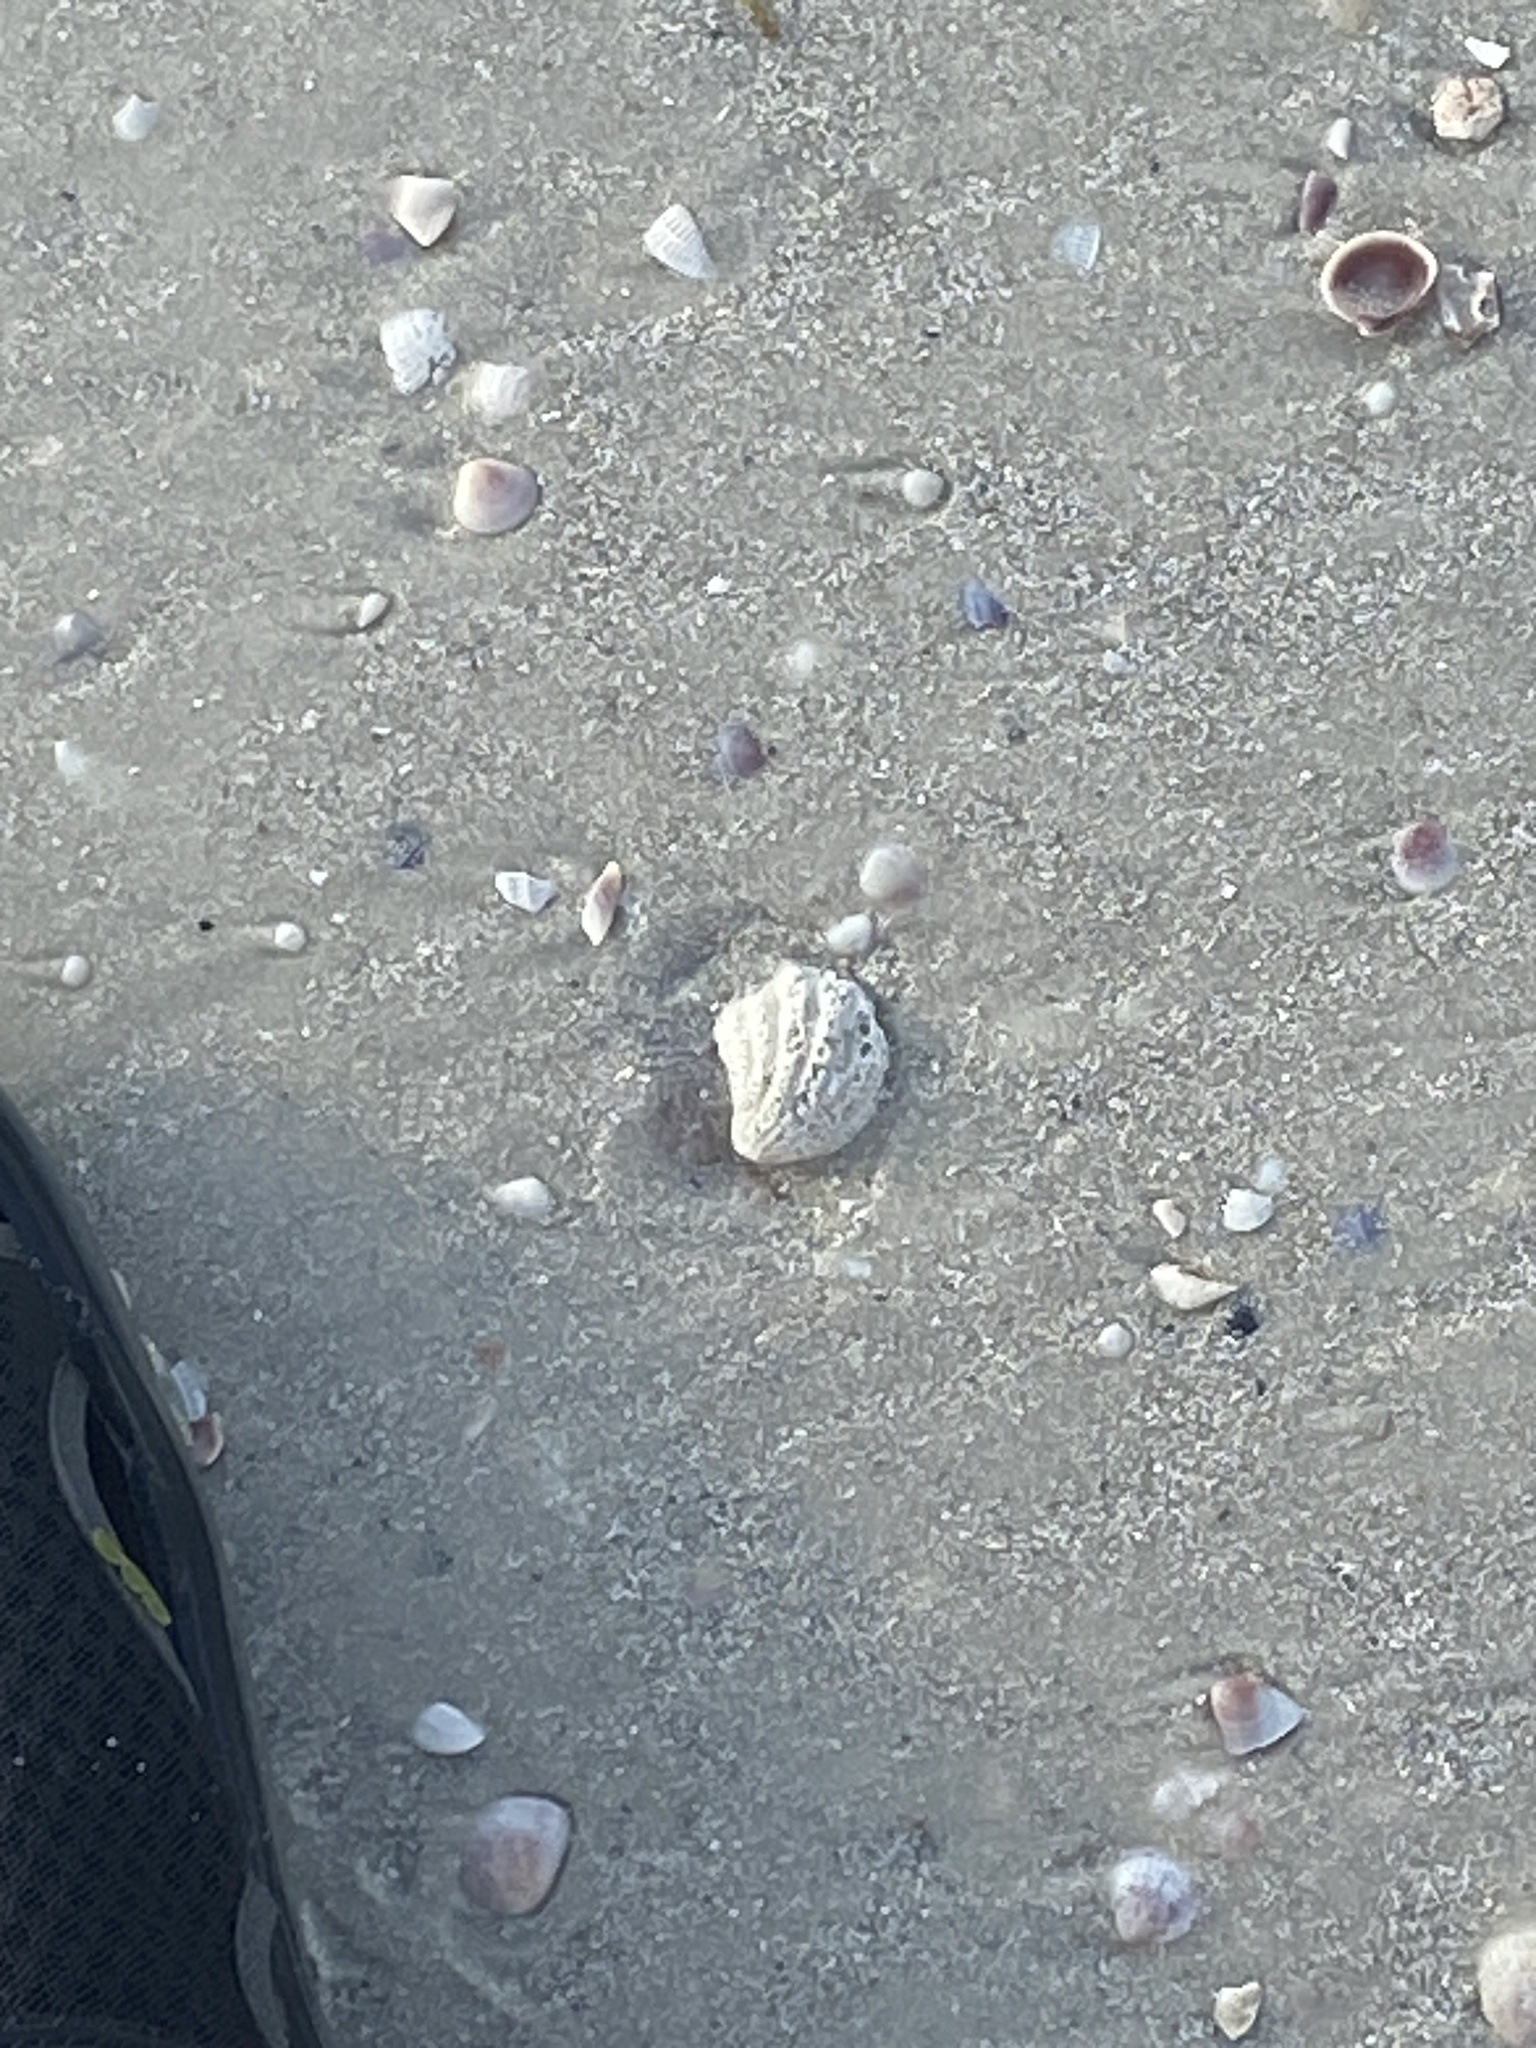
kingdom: Animalia
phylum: Mollusca
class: Bivalvia
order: Venerida
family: Chamidae
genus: Arcinella
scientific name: Arcinella cornuta
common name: Florida spiny jewel box
